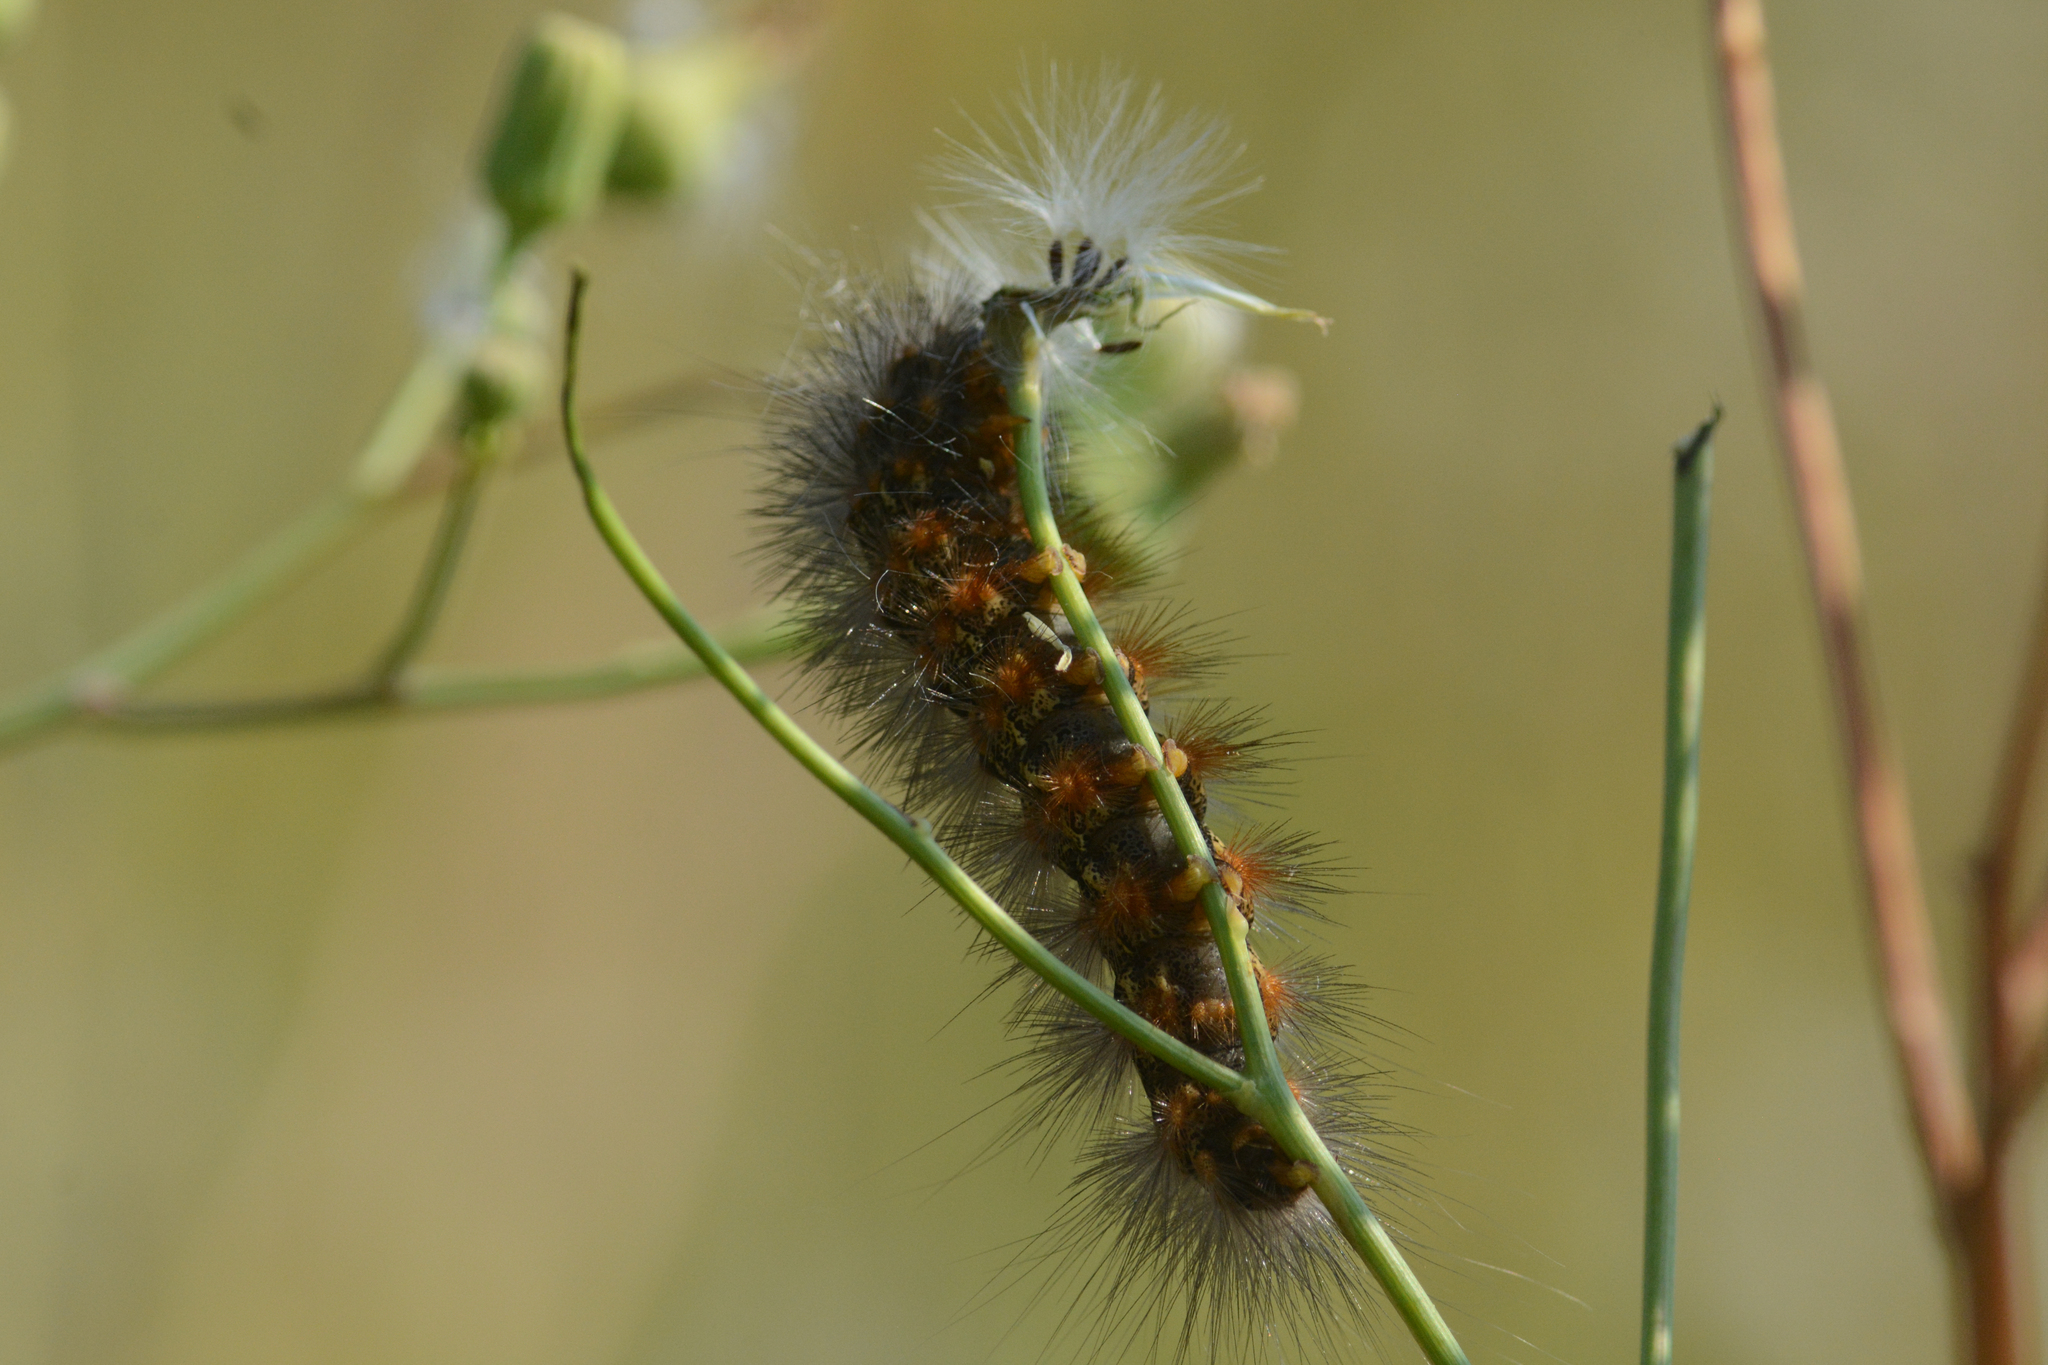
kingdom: Animalia
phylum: Arthropoda
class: Insecta
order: Lepidoptera
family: Erebidae
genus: Estigmene
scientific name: Estigmene acrea
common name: Salt marsh moth
